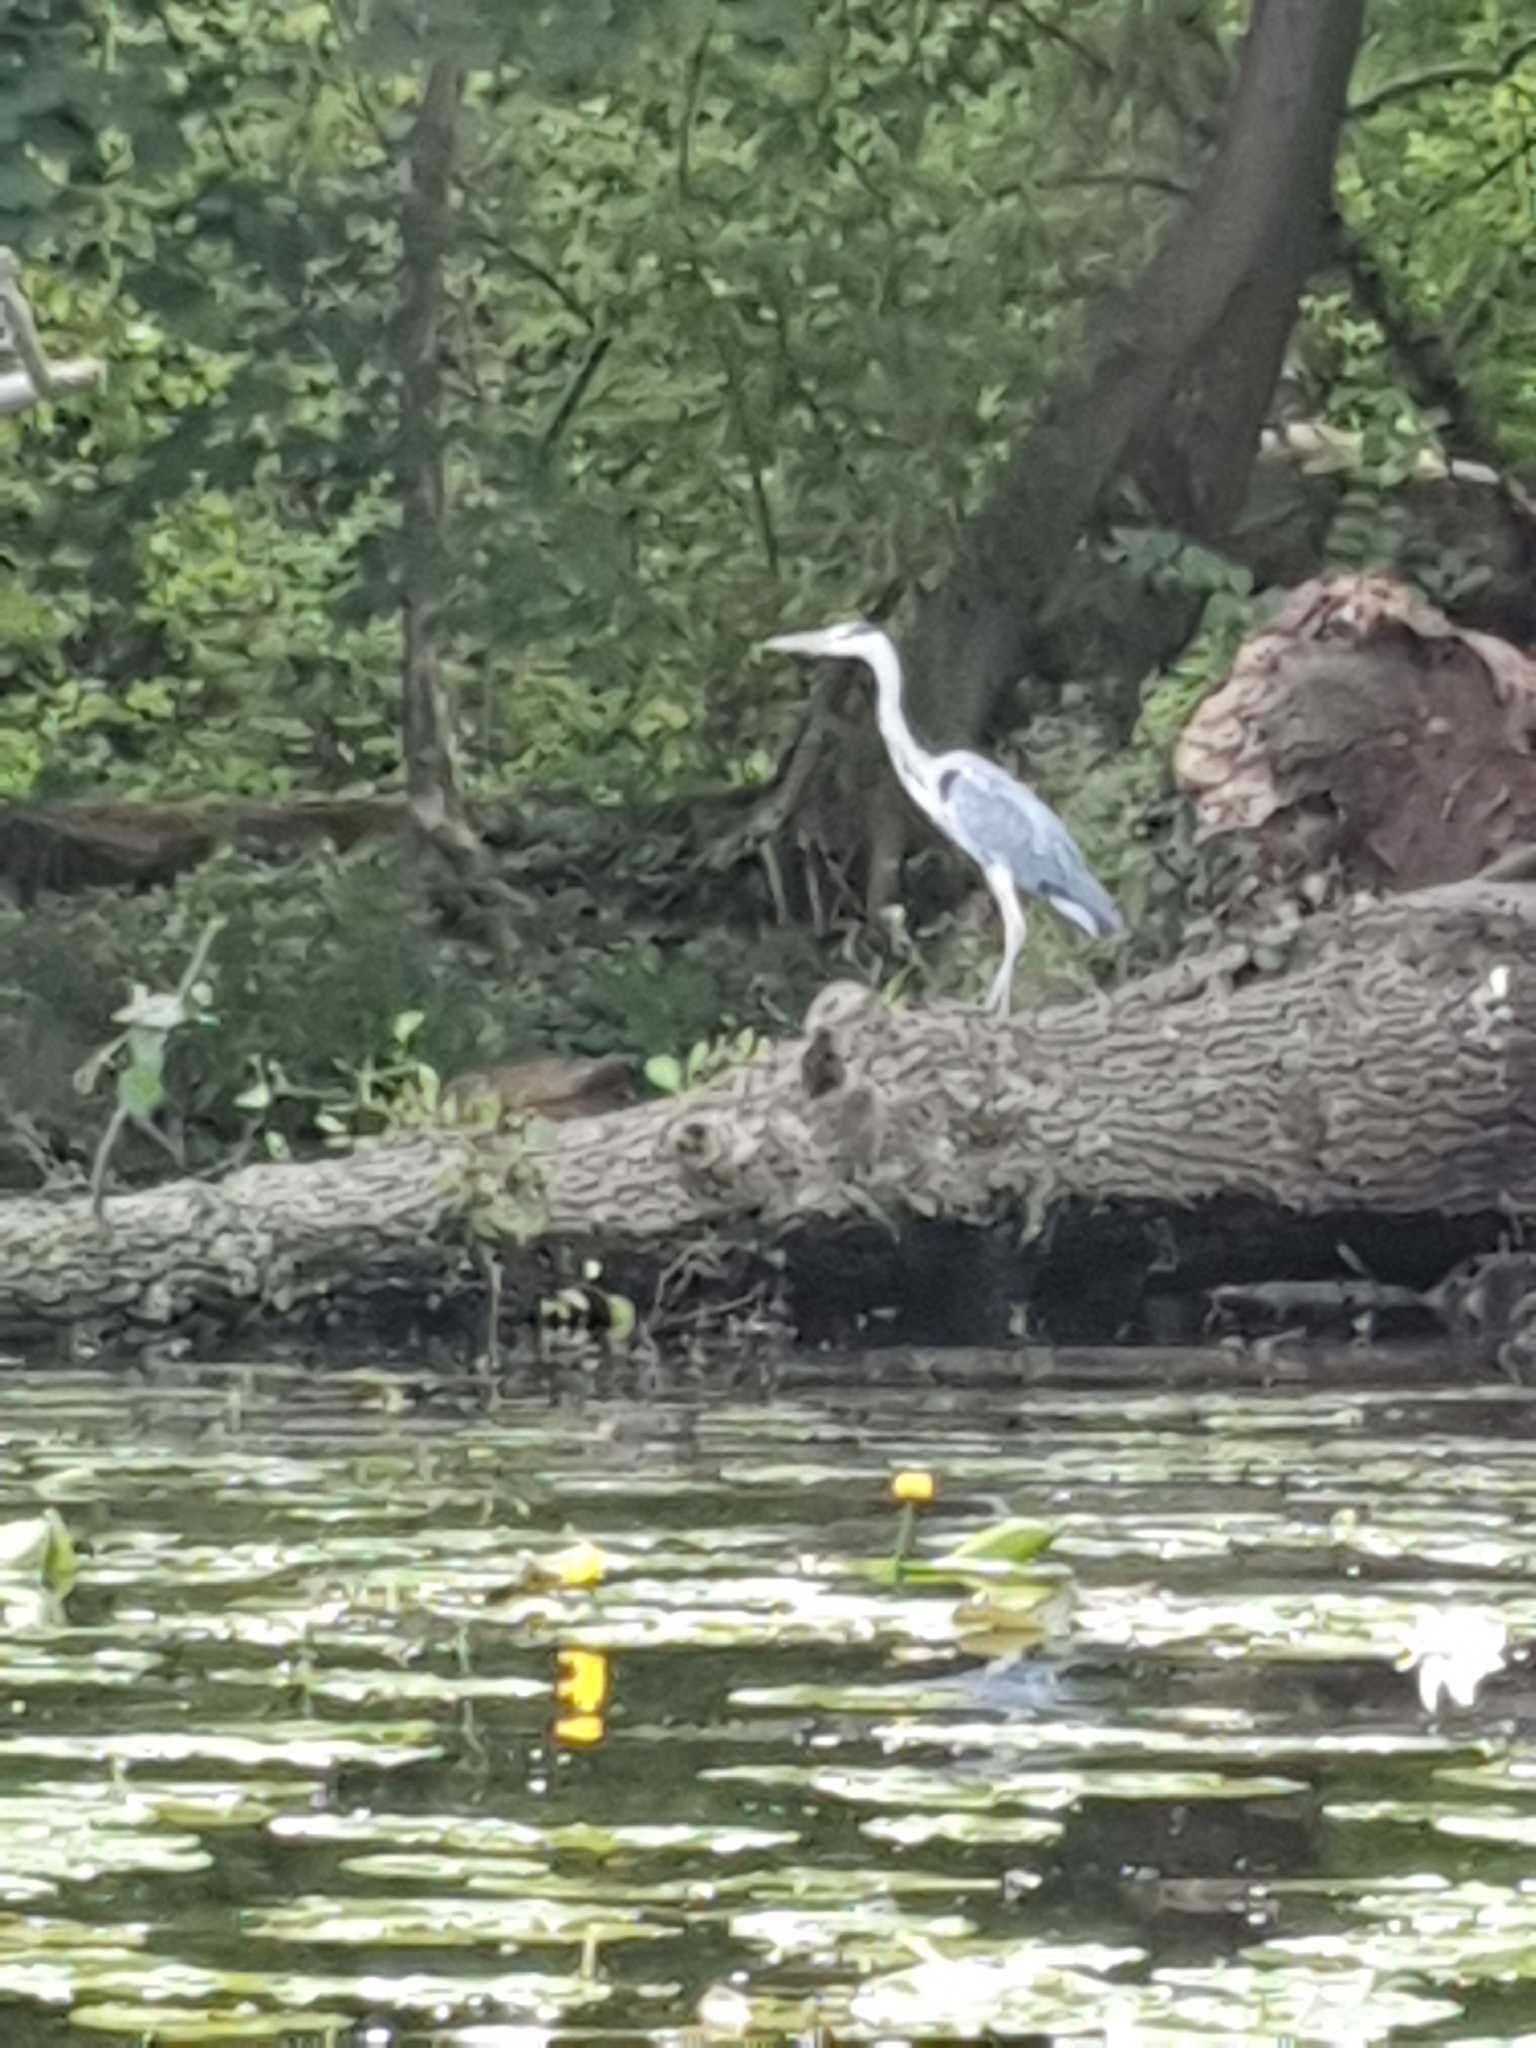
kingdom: Animalia
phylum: Chordata
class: Aves
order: Pelecaniformes
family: Ardeidae
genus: Ardea
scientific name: Ardea cinerea
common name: Grey heron
